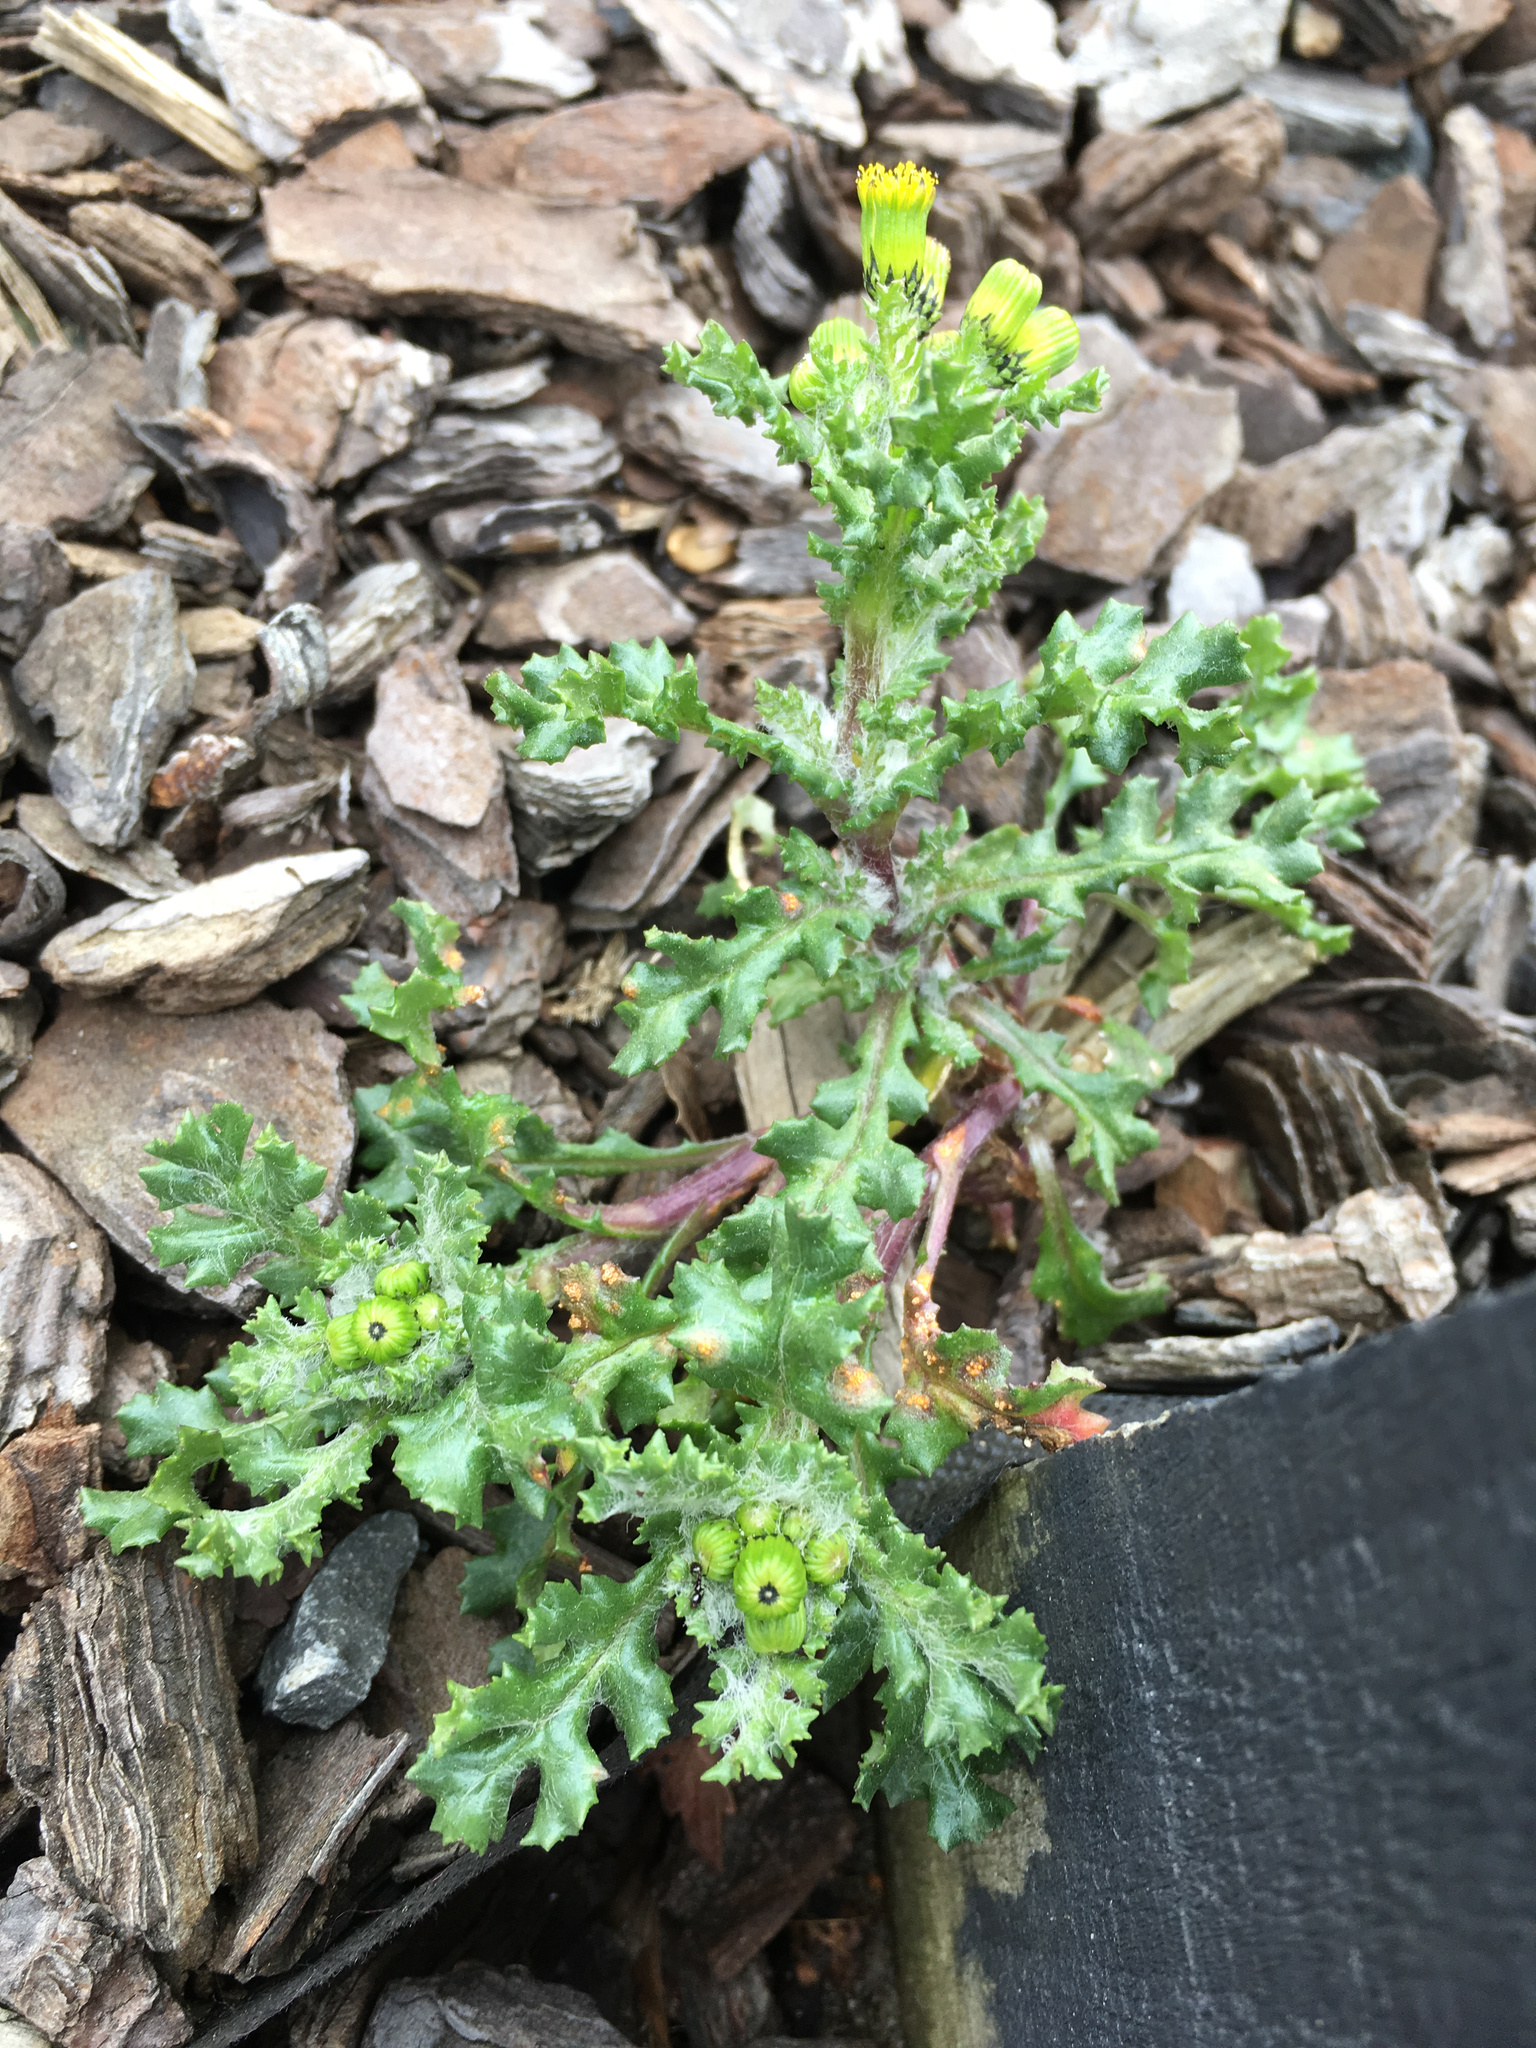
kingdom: Plantae
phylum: Tracheophyta
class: Magnoliopsida
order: Asterales
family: Asteraceae
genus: Senecio
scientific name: Senecio vulgaris
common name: Old-man-in-the-spring
